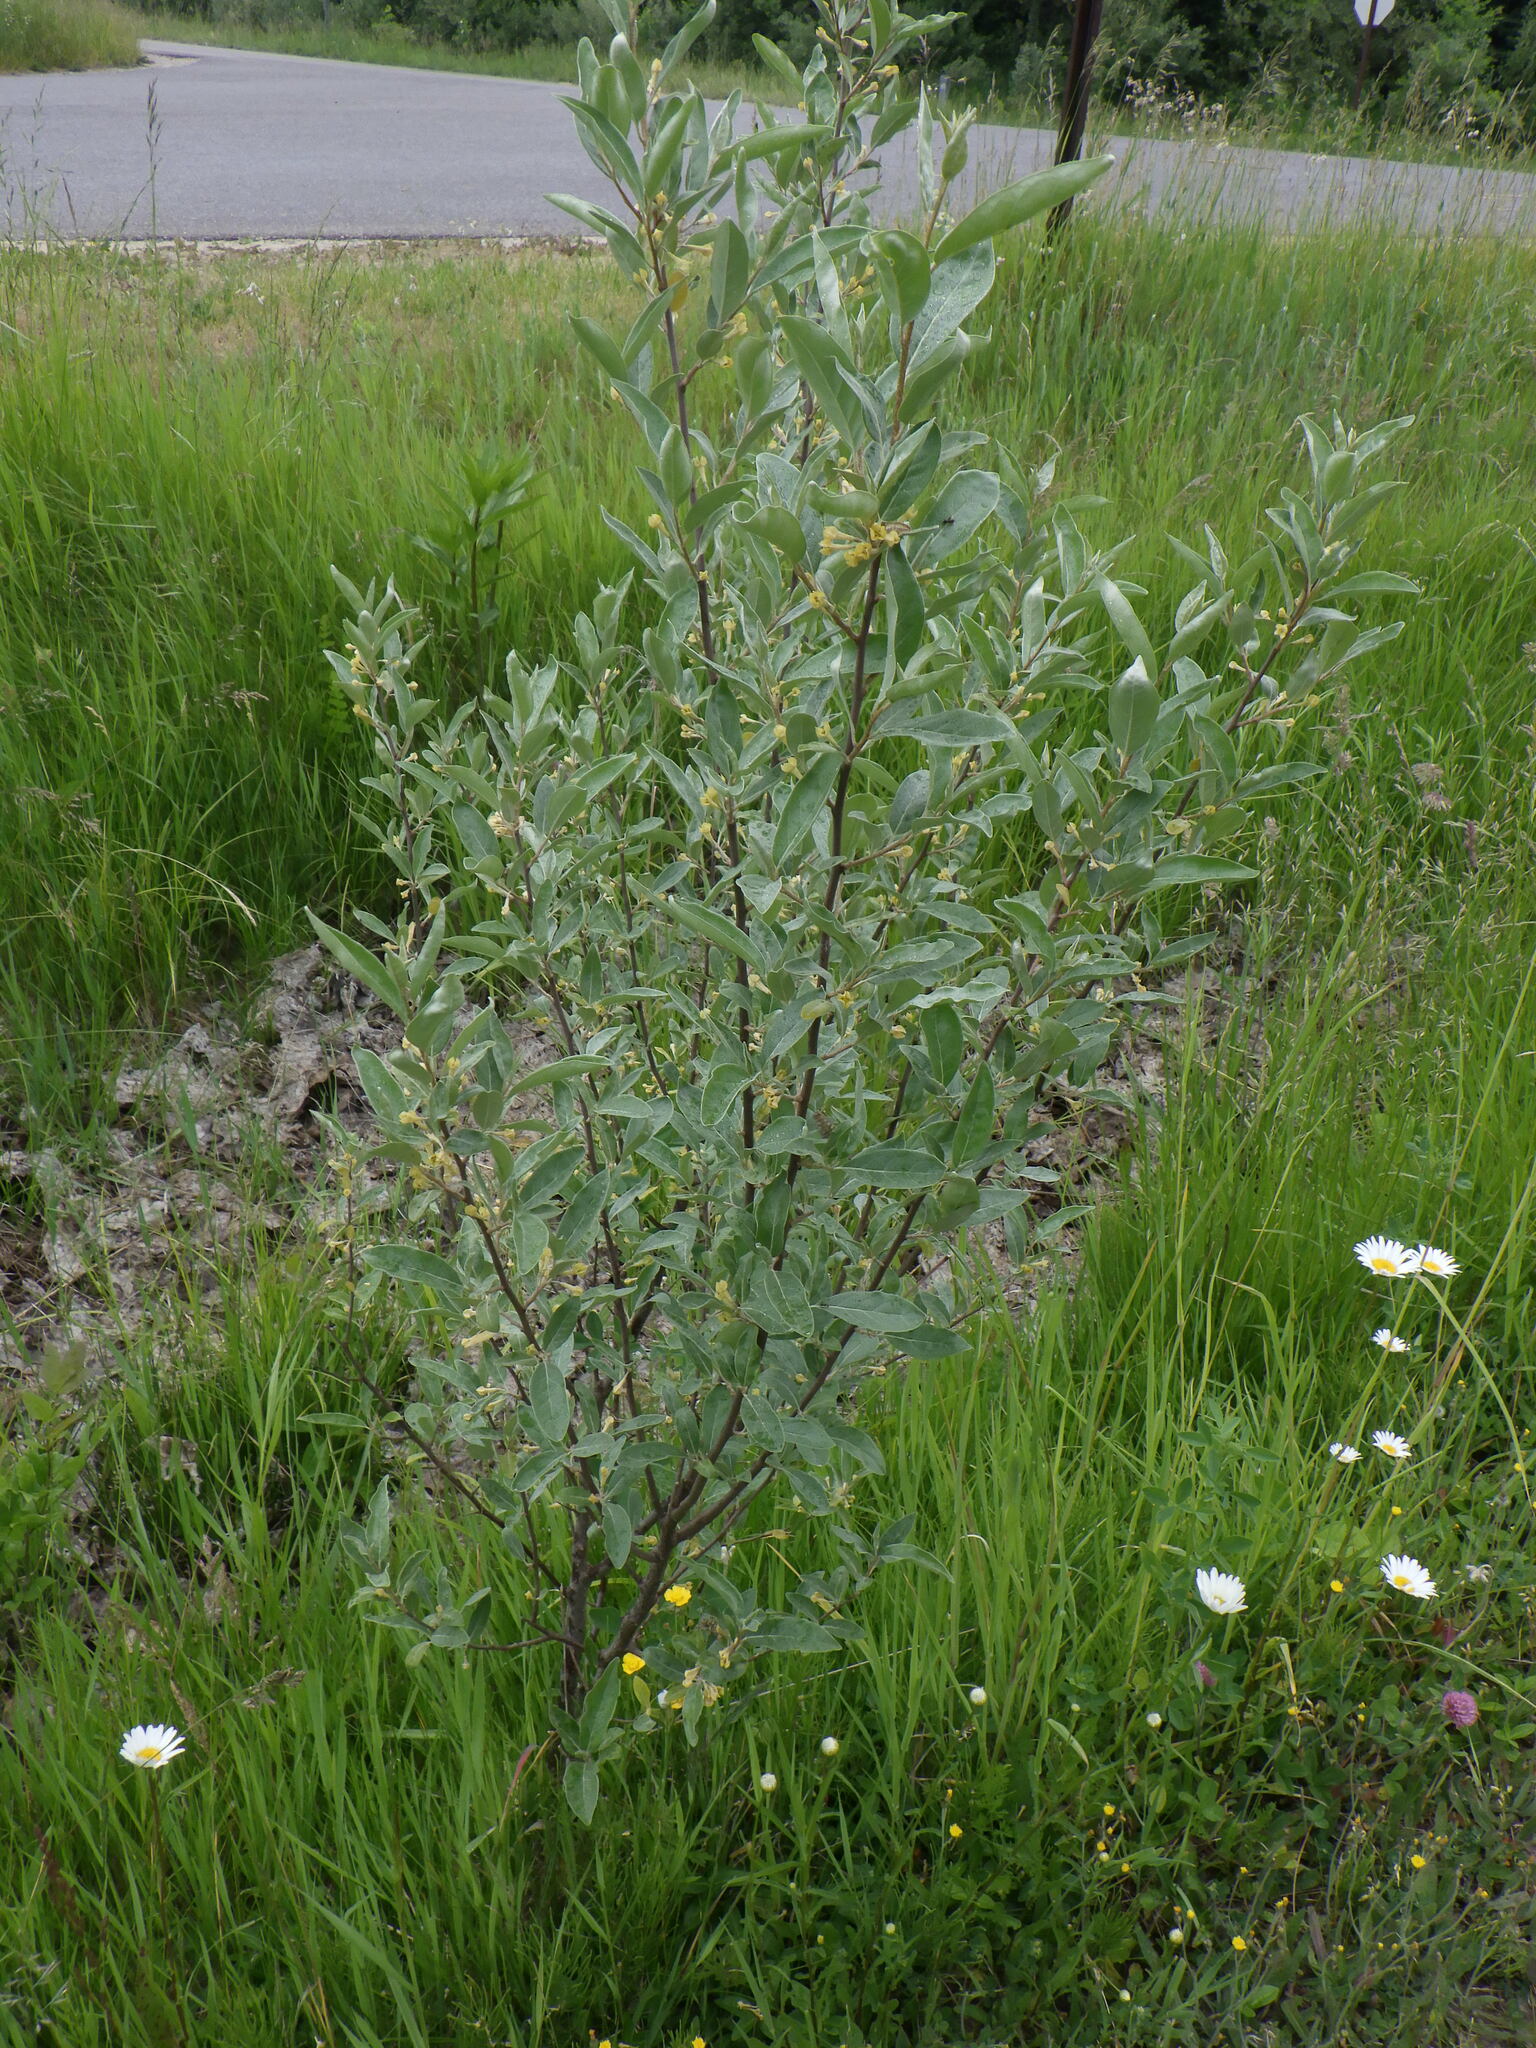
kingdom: Plantae
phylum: Tracheophyta
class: Magnoliopsida
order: Rosales
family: Elaeagnaceae
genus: Elaeagnus
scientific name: Elaeagnus umbellata
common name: Autumn olive
